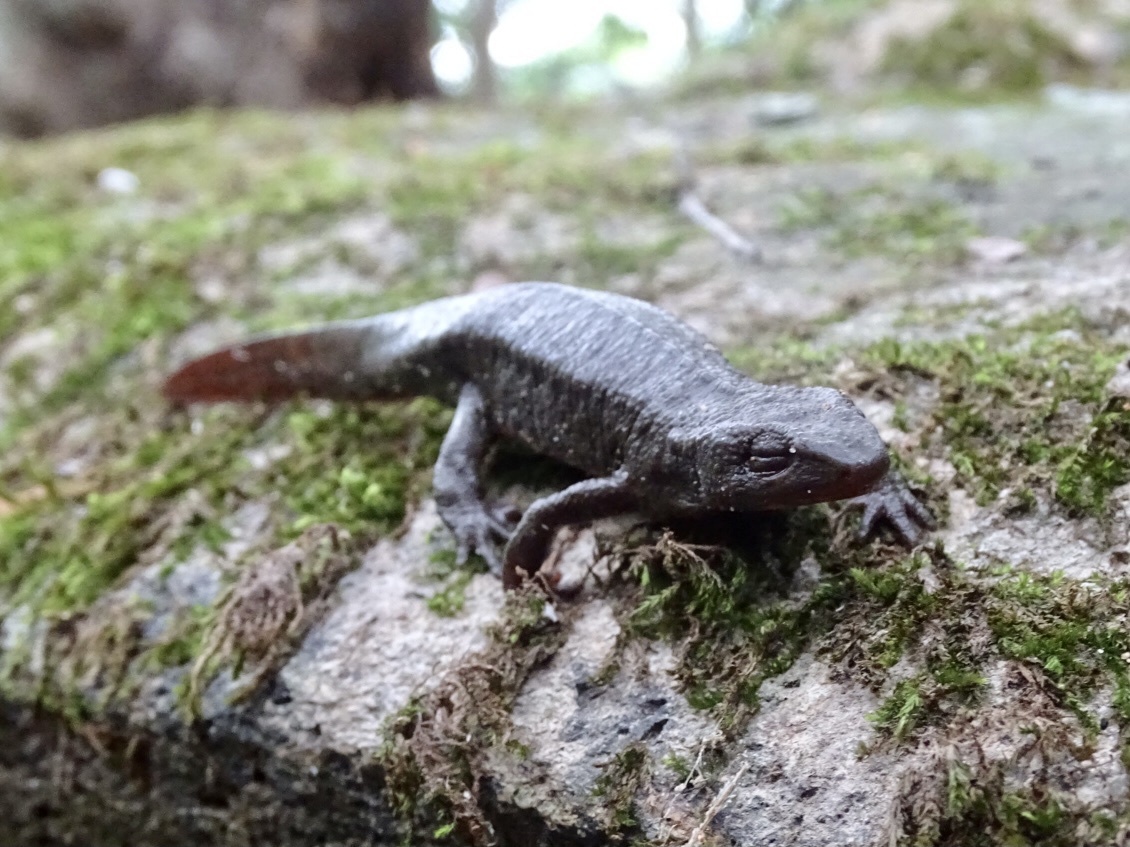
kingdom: Animalia
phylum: Chordata
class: Amphibia
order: Caudata
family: Salamandridae
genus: Paramesotriton
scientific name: Paramesotriton hongkongensis
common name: Hong kong warty newt
